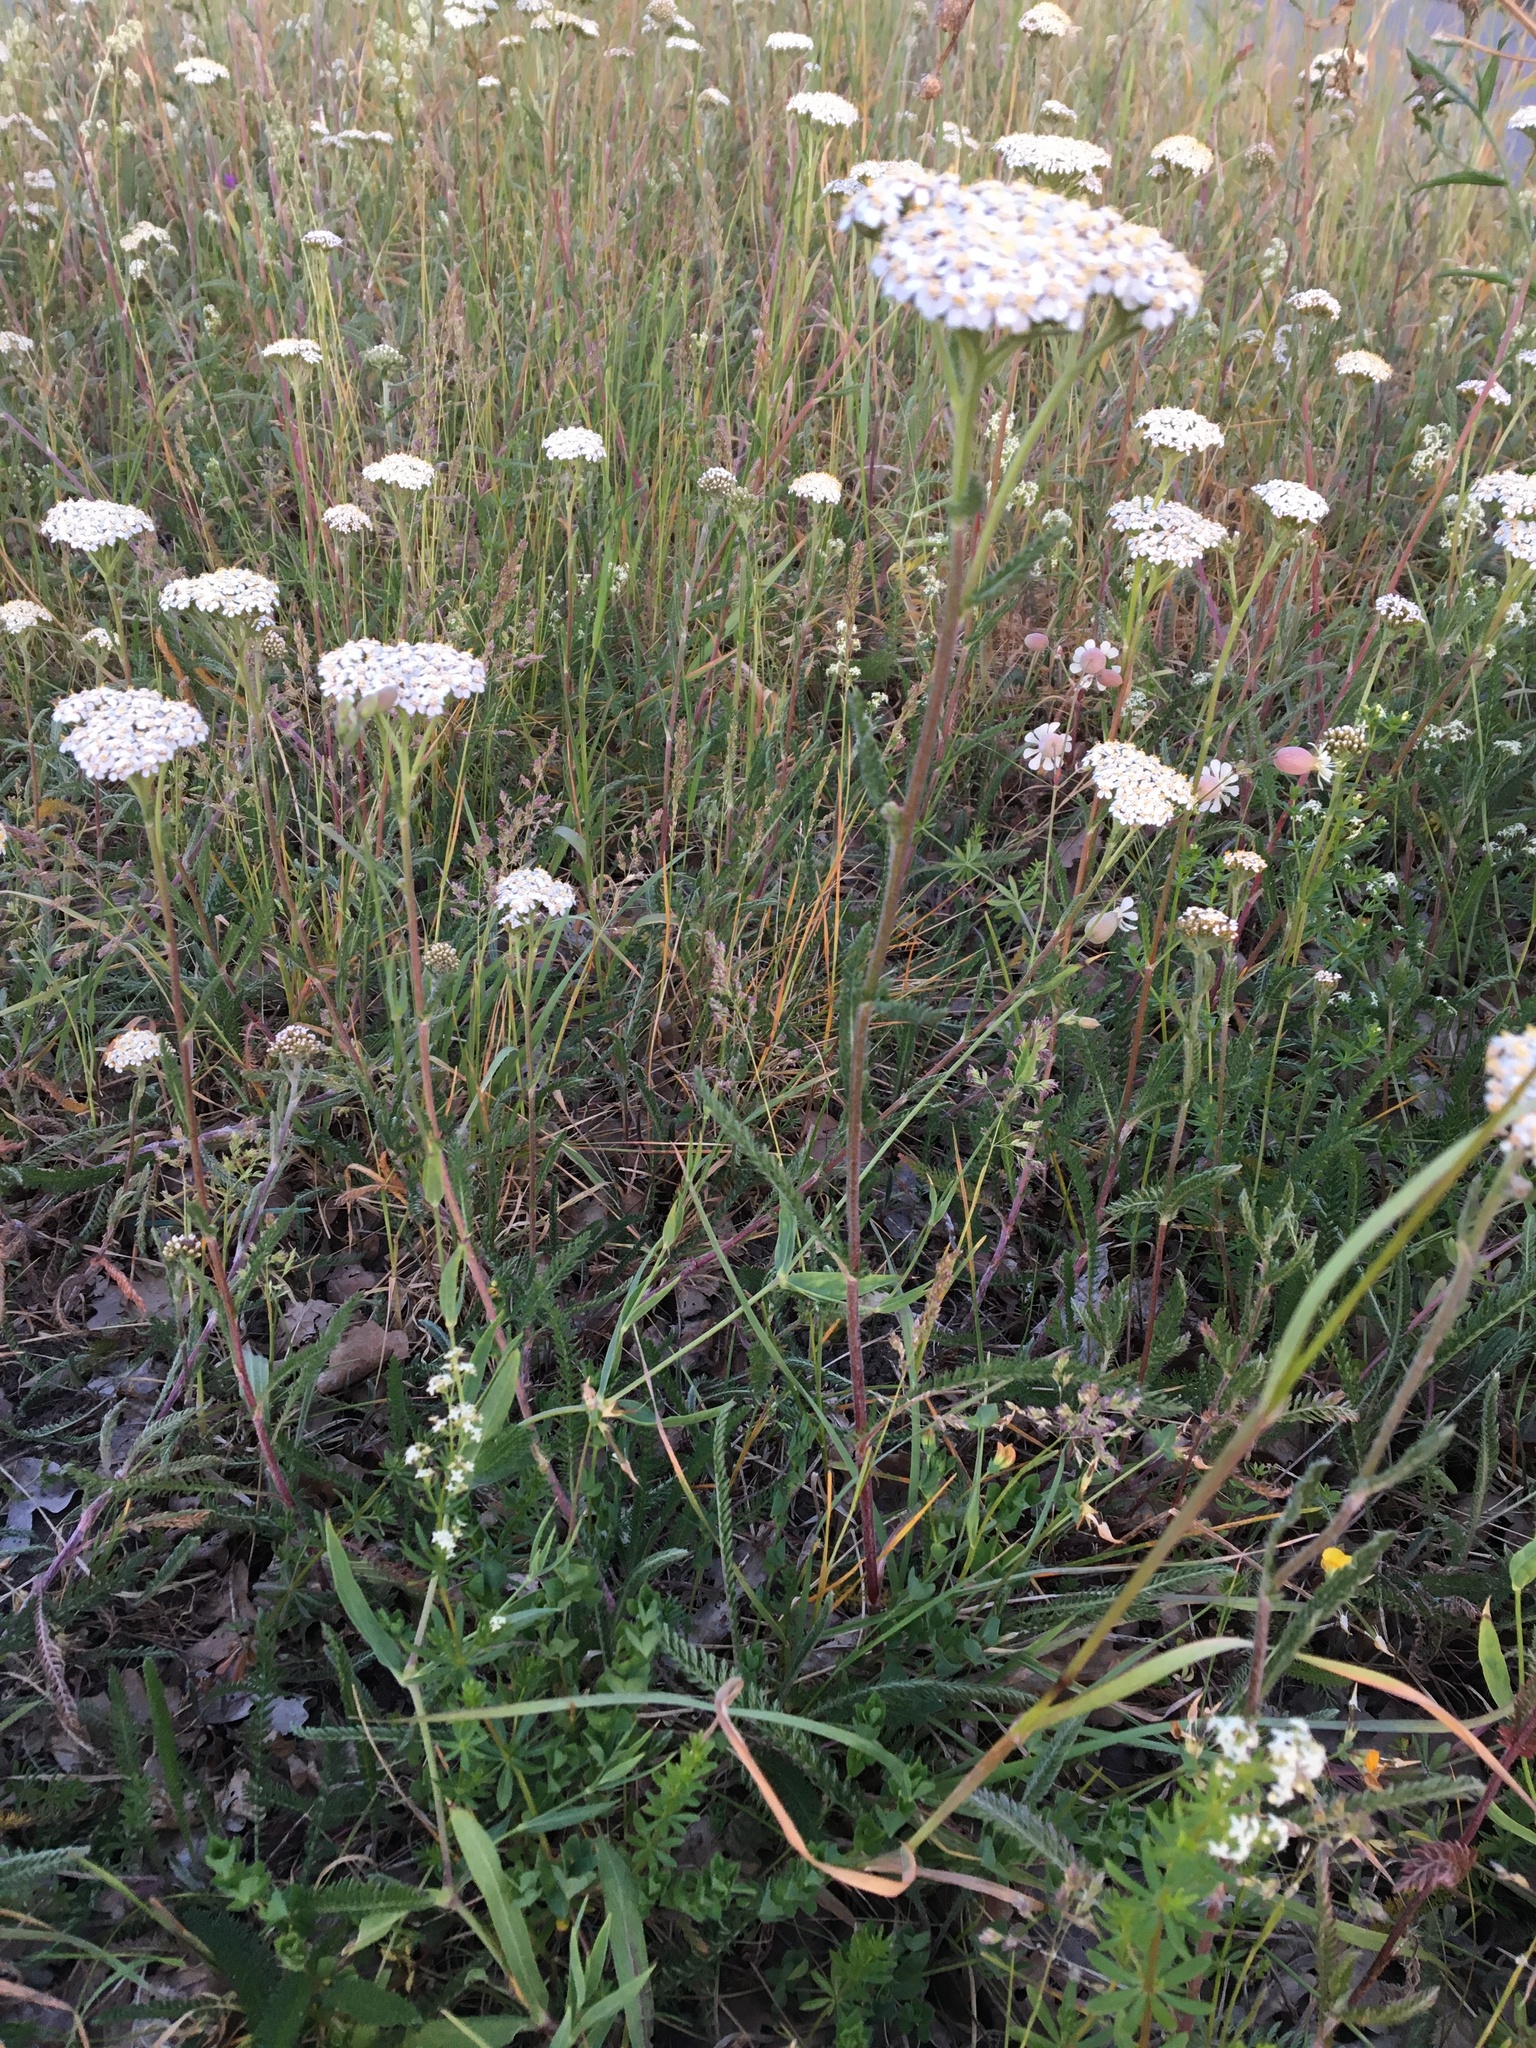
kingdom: Plantae
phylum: Tracheophyta
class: Magnoliopsida
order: Asterales
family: Asteraceae
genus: Achillea
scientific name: Achillea millefolium
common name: Yarrow
